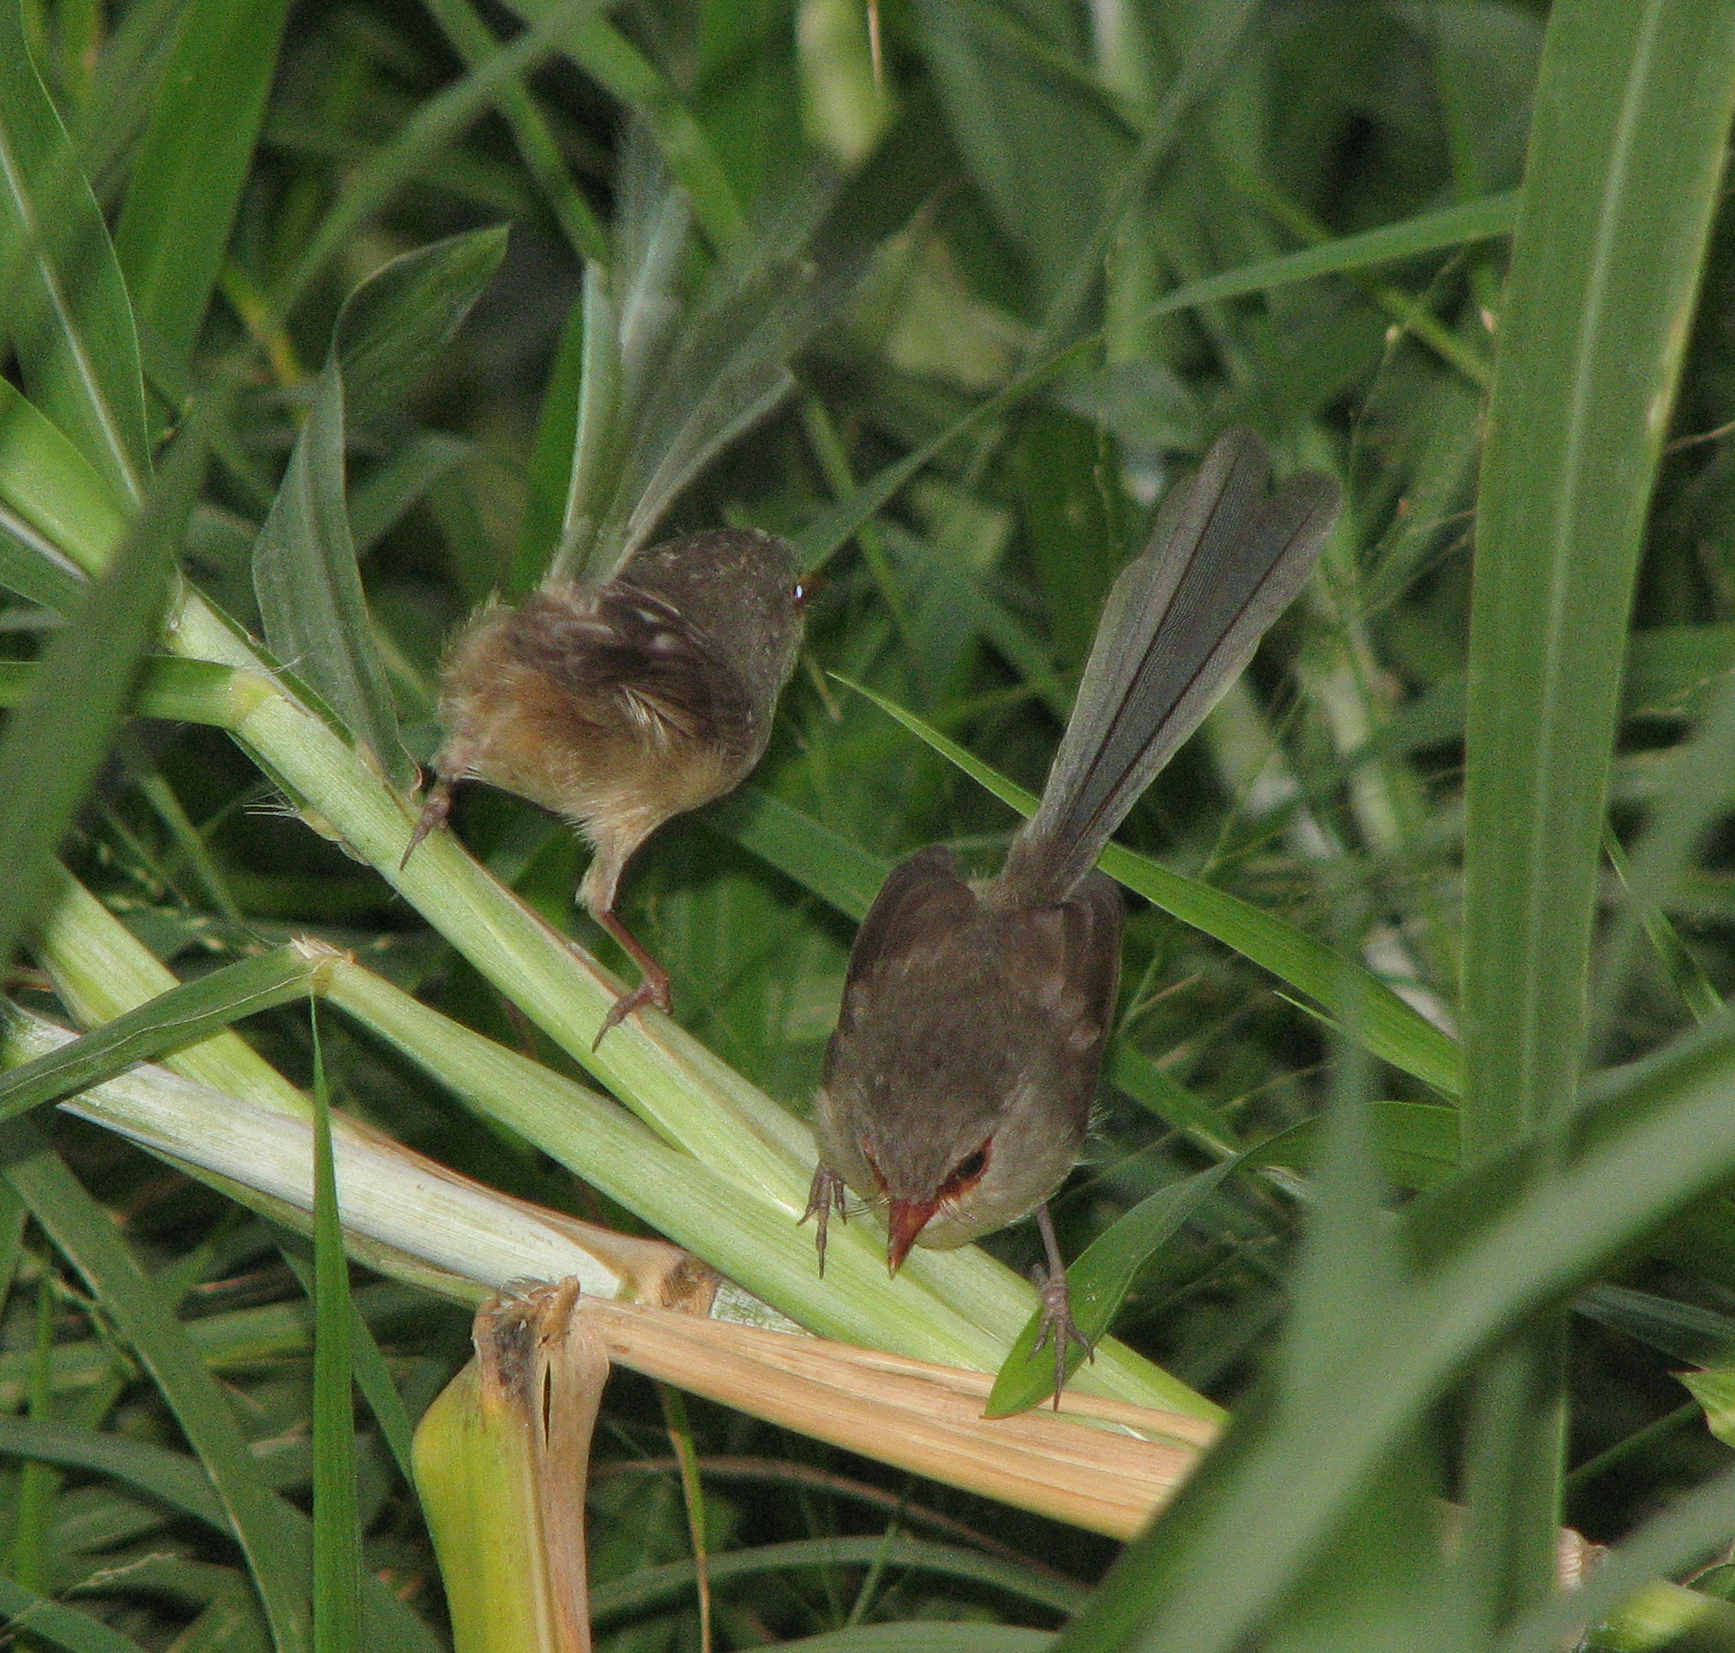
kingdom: Animalia
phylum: Chordata
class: Aves
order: Passeriformes
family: Maluridae
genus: Malurus
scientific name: Malurus lamberti
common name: Variegated fairywren
